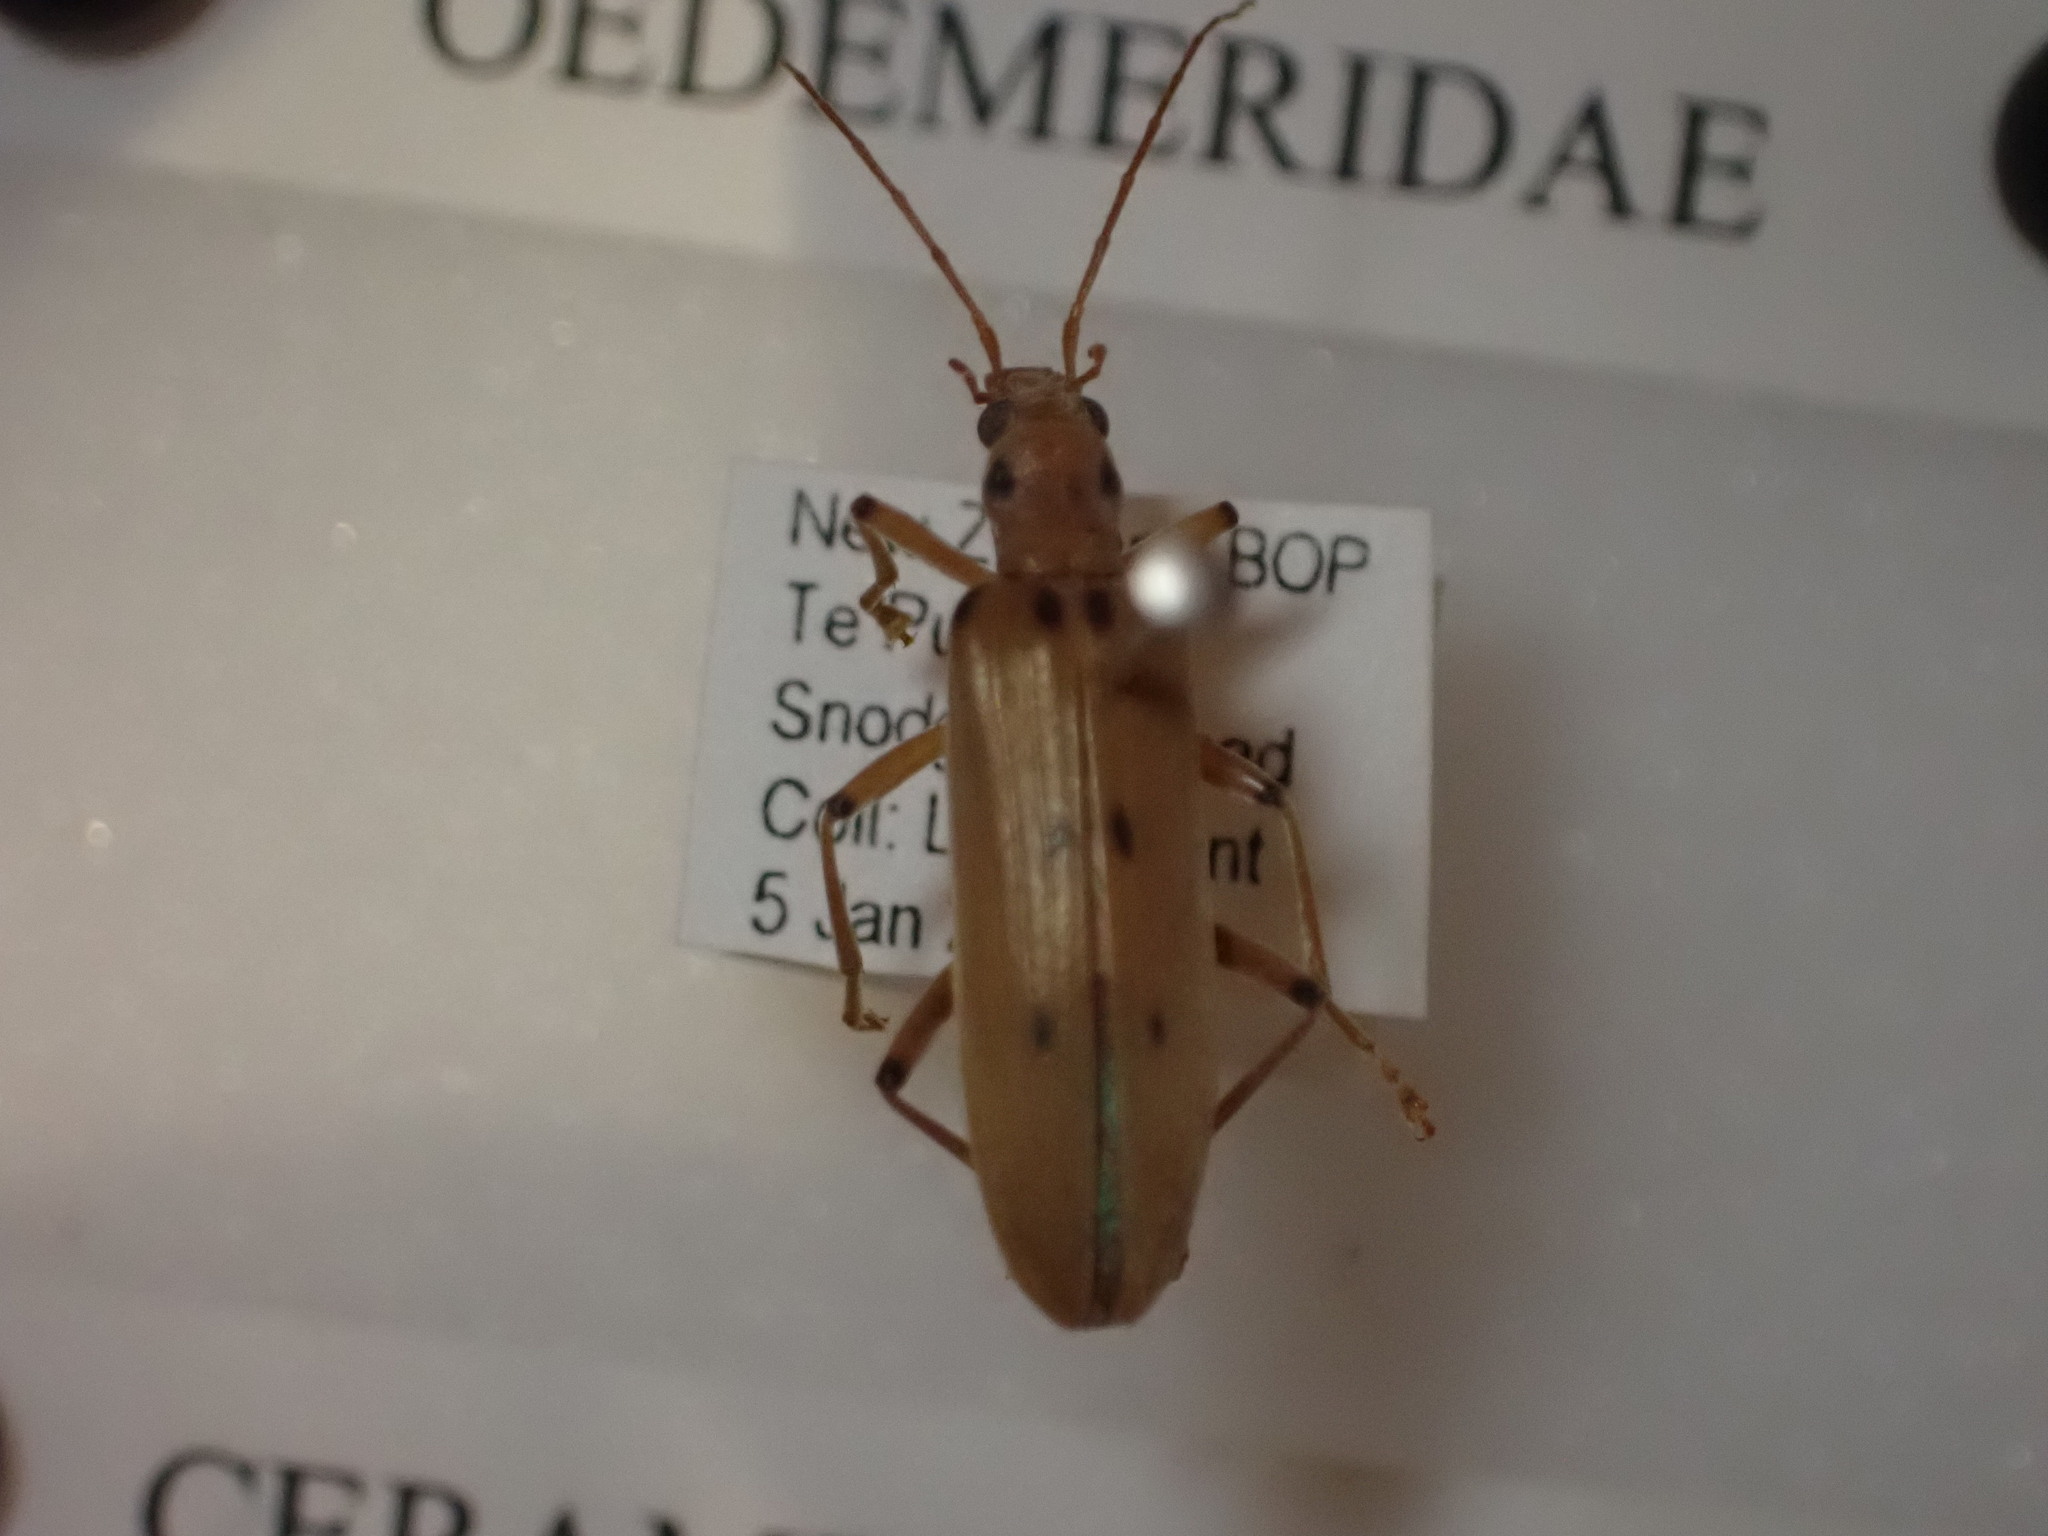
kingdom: Animalia
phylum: Arthropoda
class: Insecta
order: Coleoptera
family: Oedemeridae
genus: Parisopalpus
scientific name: Parisopalpus
